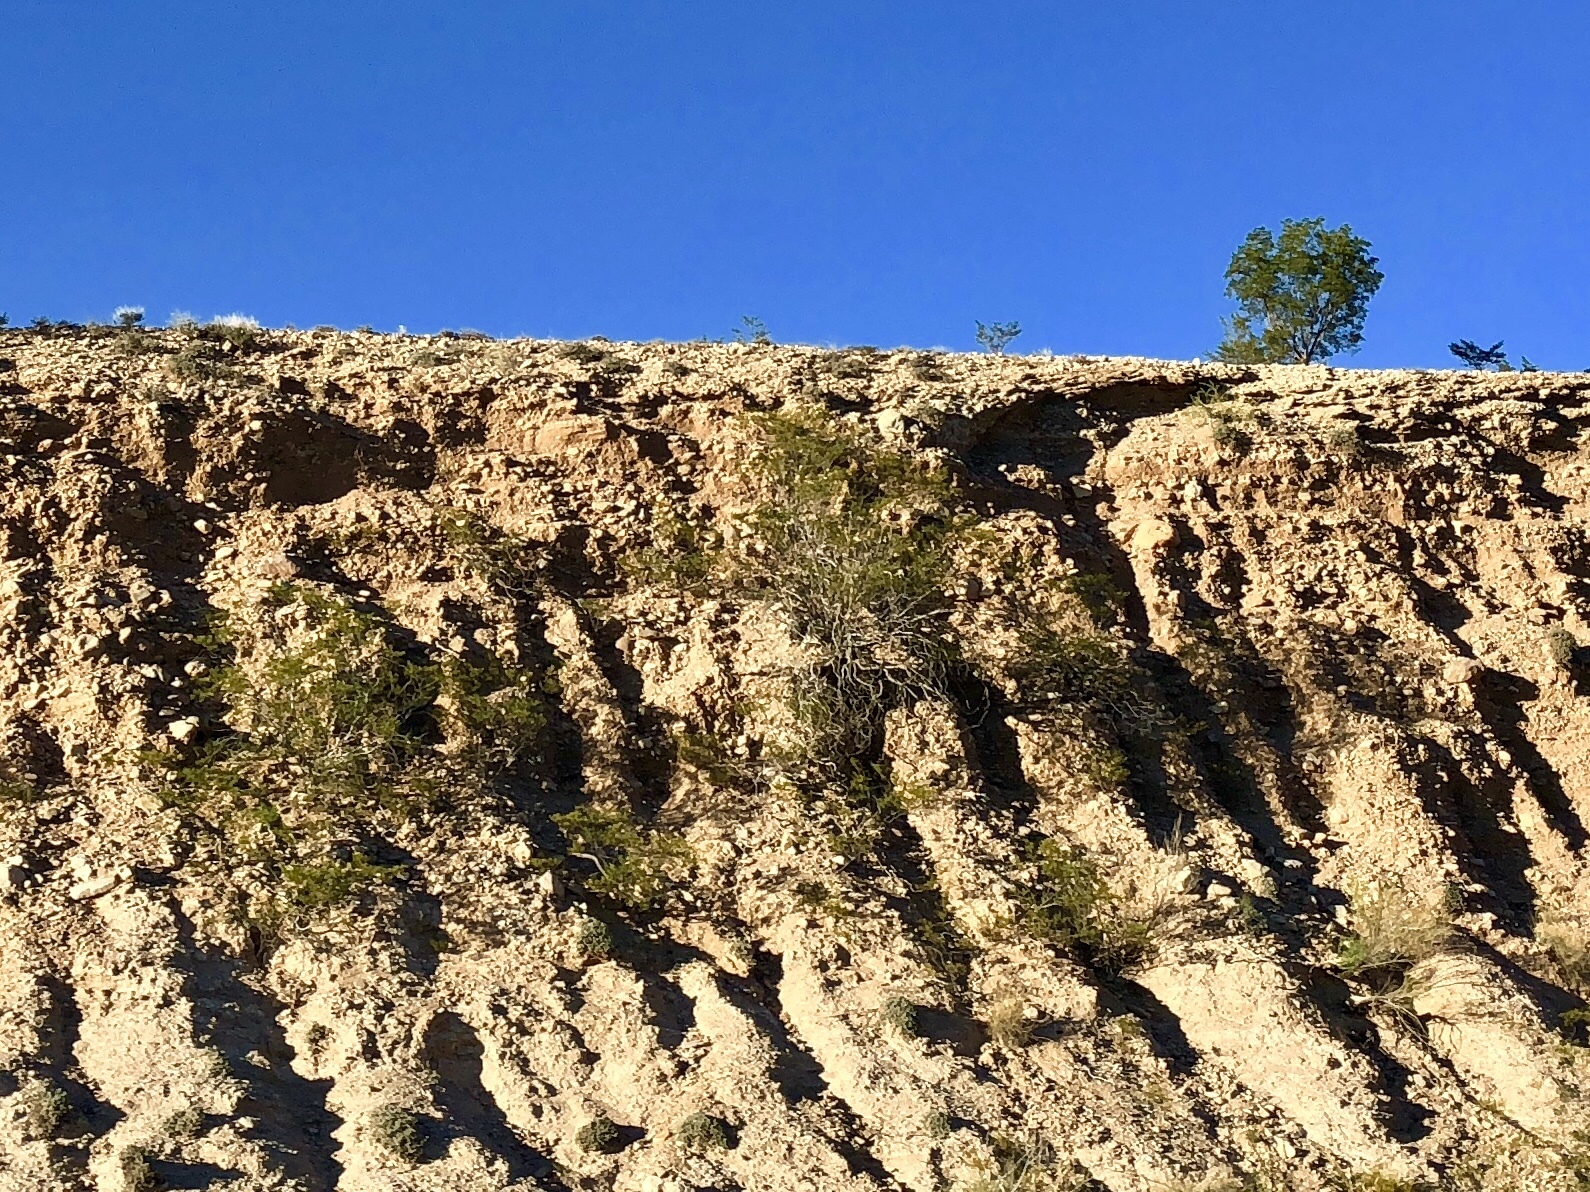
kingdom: Plantae
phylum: Tracheophyta
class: Magnoliopsida
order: Zygophyllales
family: Zygophyllaceae
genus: Larrea
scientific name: Larrea tridentata
